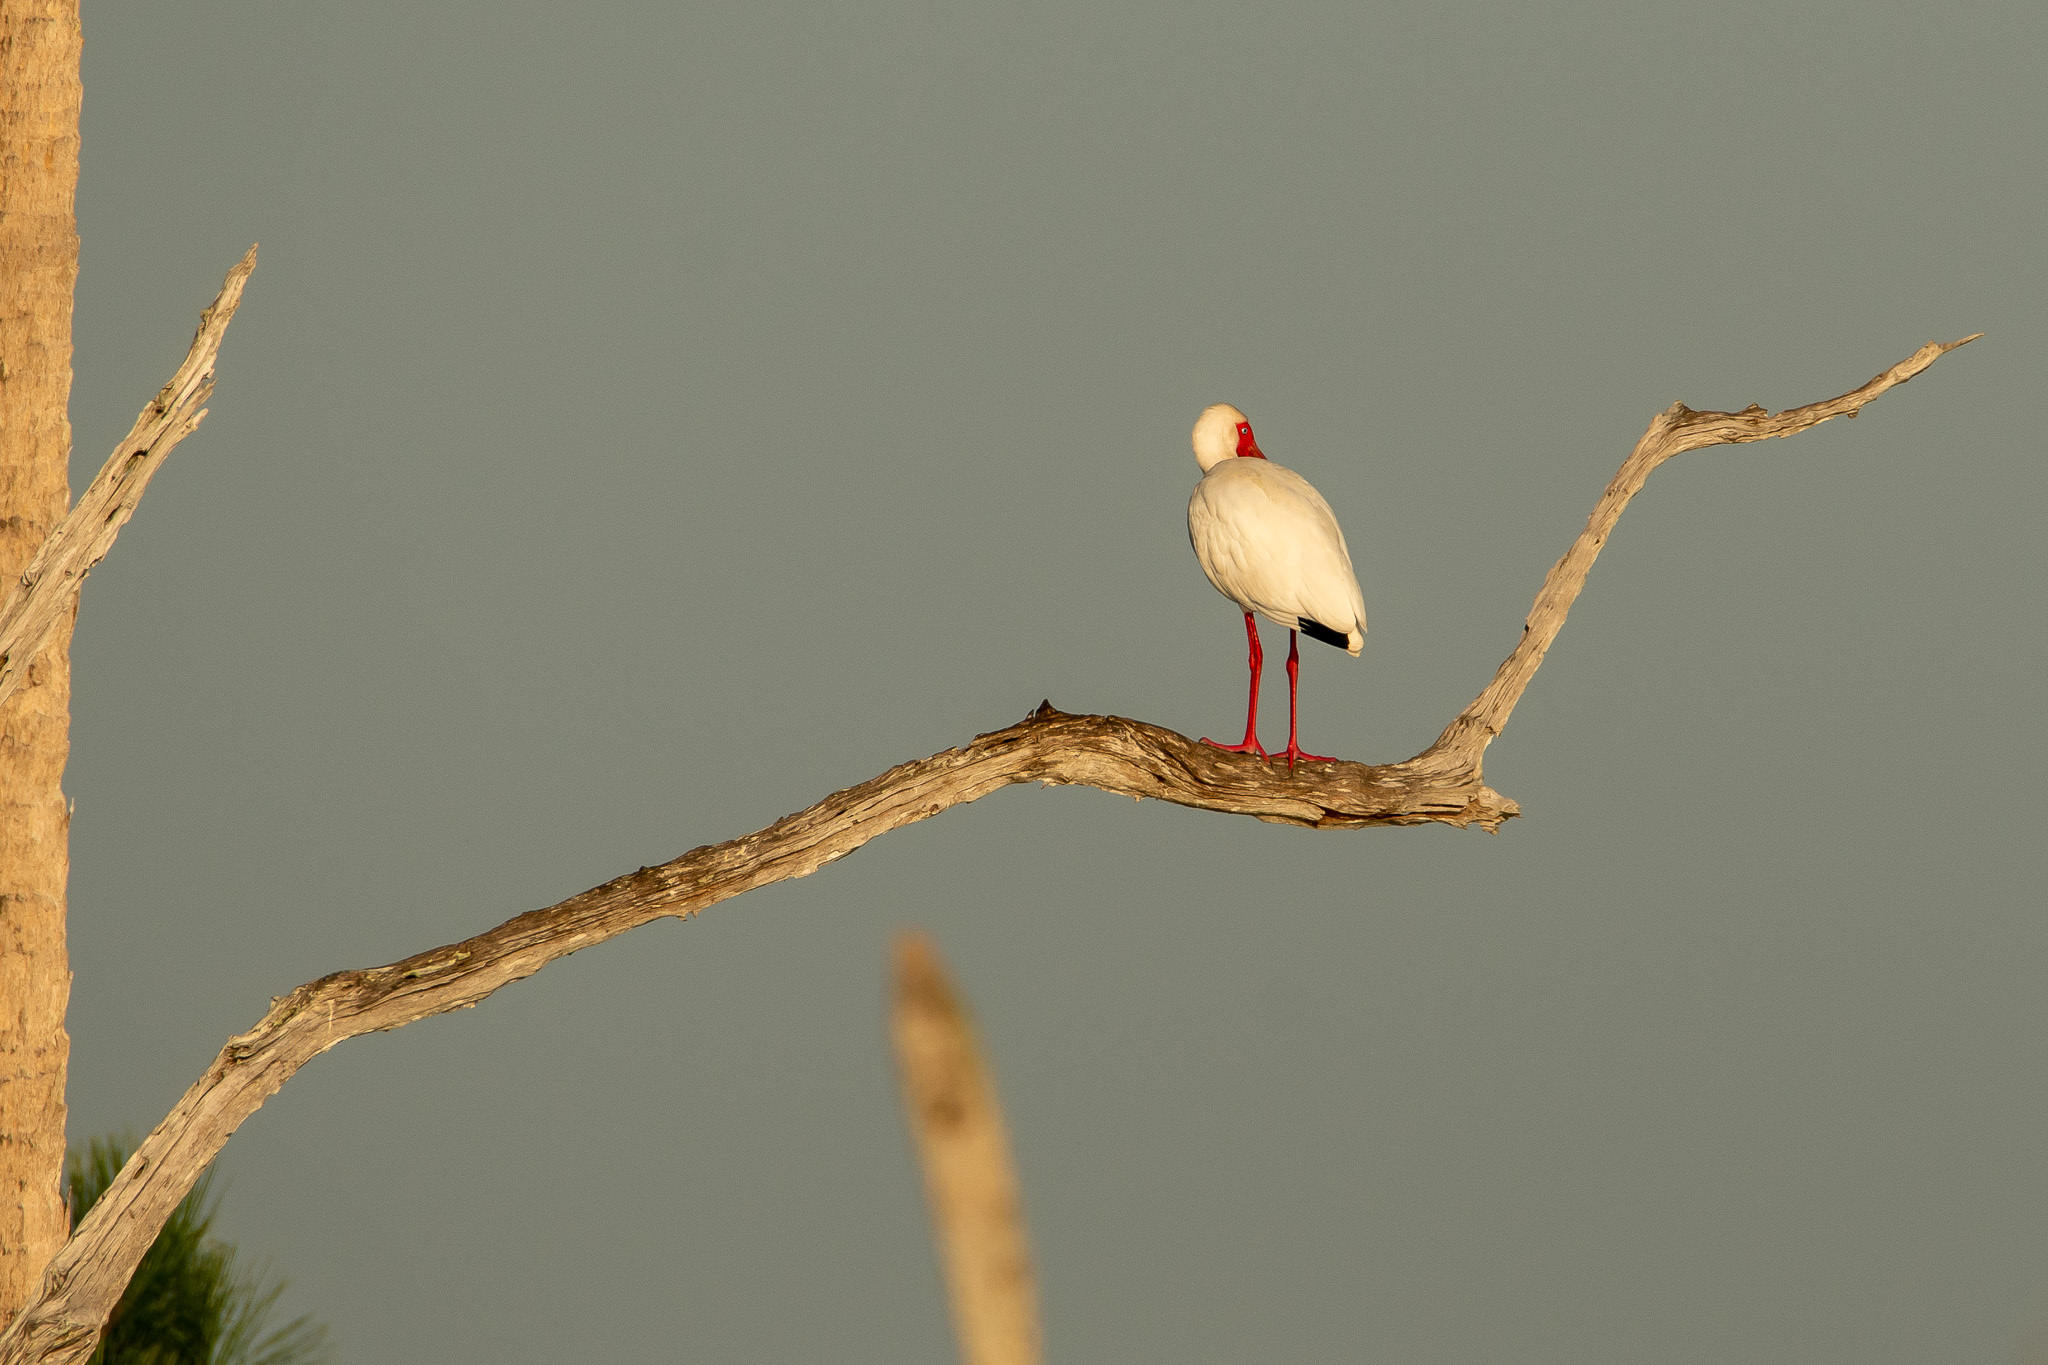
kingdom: Animalia
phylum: Chordata
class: Aves
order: Pelecaniformes
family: Threskiornithidae
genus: Eudocimus
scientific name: Eudocimus albus
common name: White ibis
